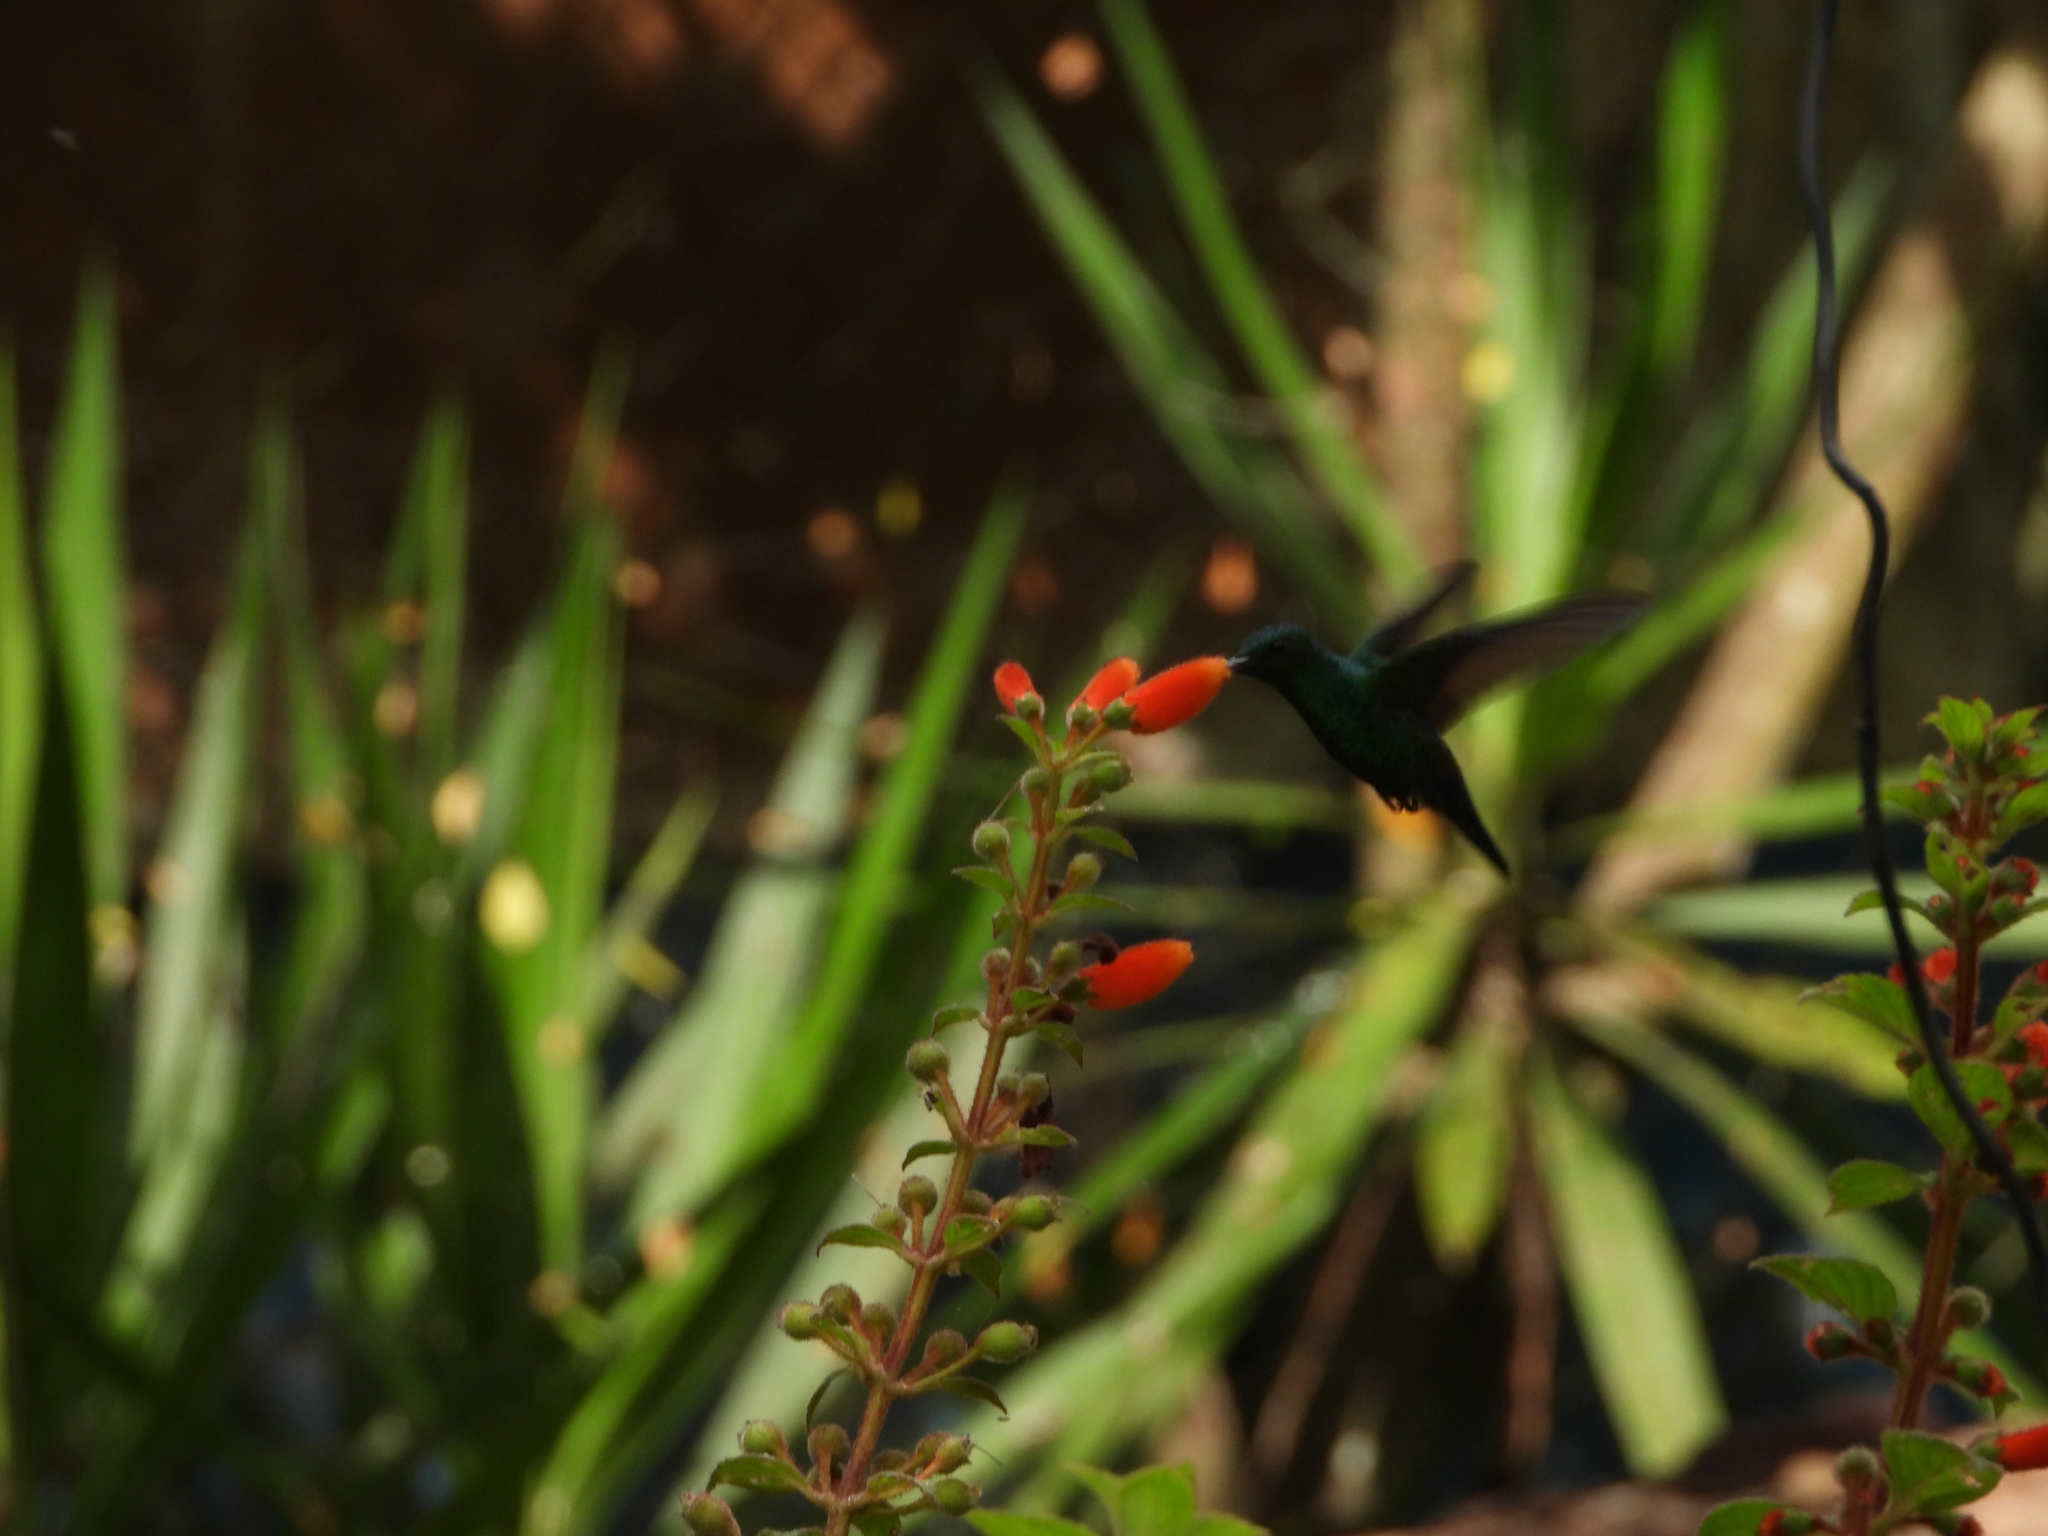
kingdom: Animalia
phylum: Chordata
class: Aves
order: Apodiformes
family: Trochilidae
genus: Saucerottia
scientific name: Saucerottia hoffmanni
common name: Blue-vented hummingbird
